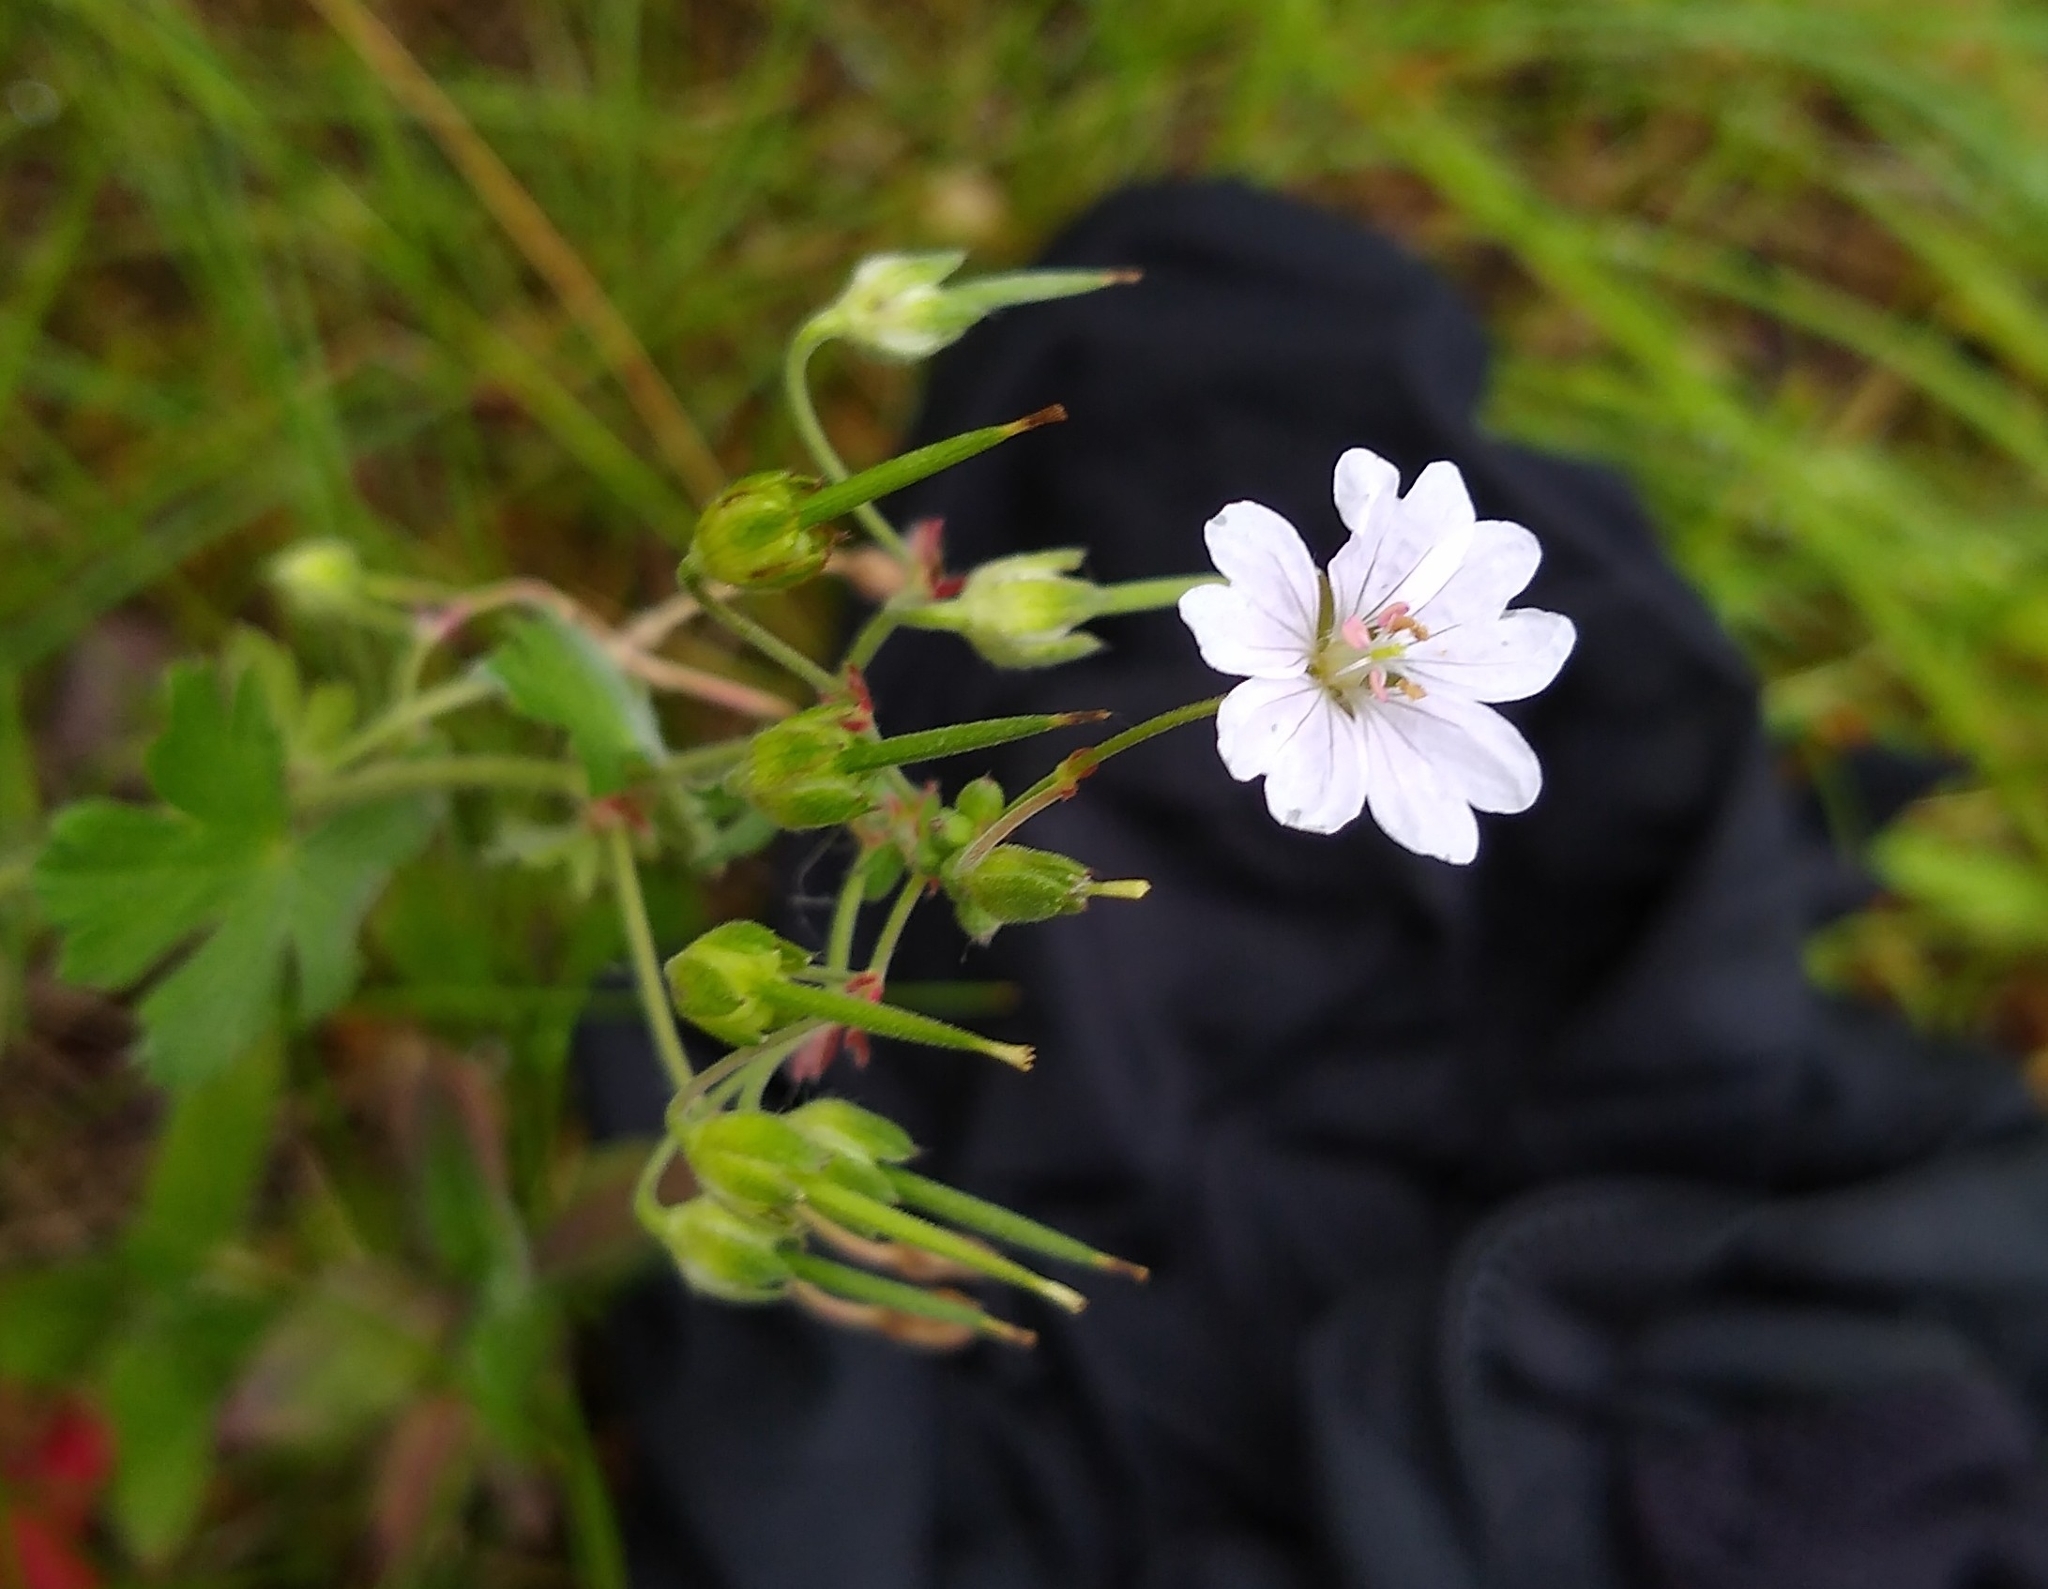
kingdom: Plantae
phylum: Tracheophyta
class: Magnoliopsida
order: Geraniales
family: Geraniaceae
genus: Geranium
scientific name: Geranium pyrenaicum
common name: Hedgerow crane's-bill
